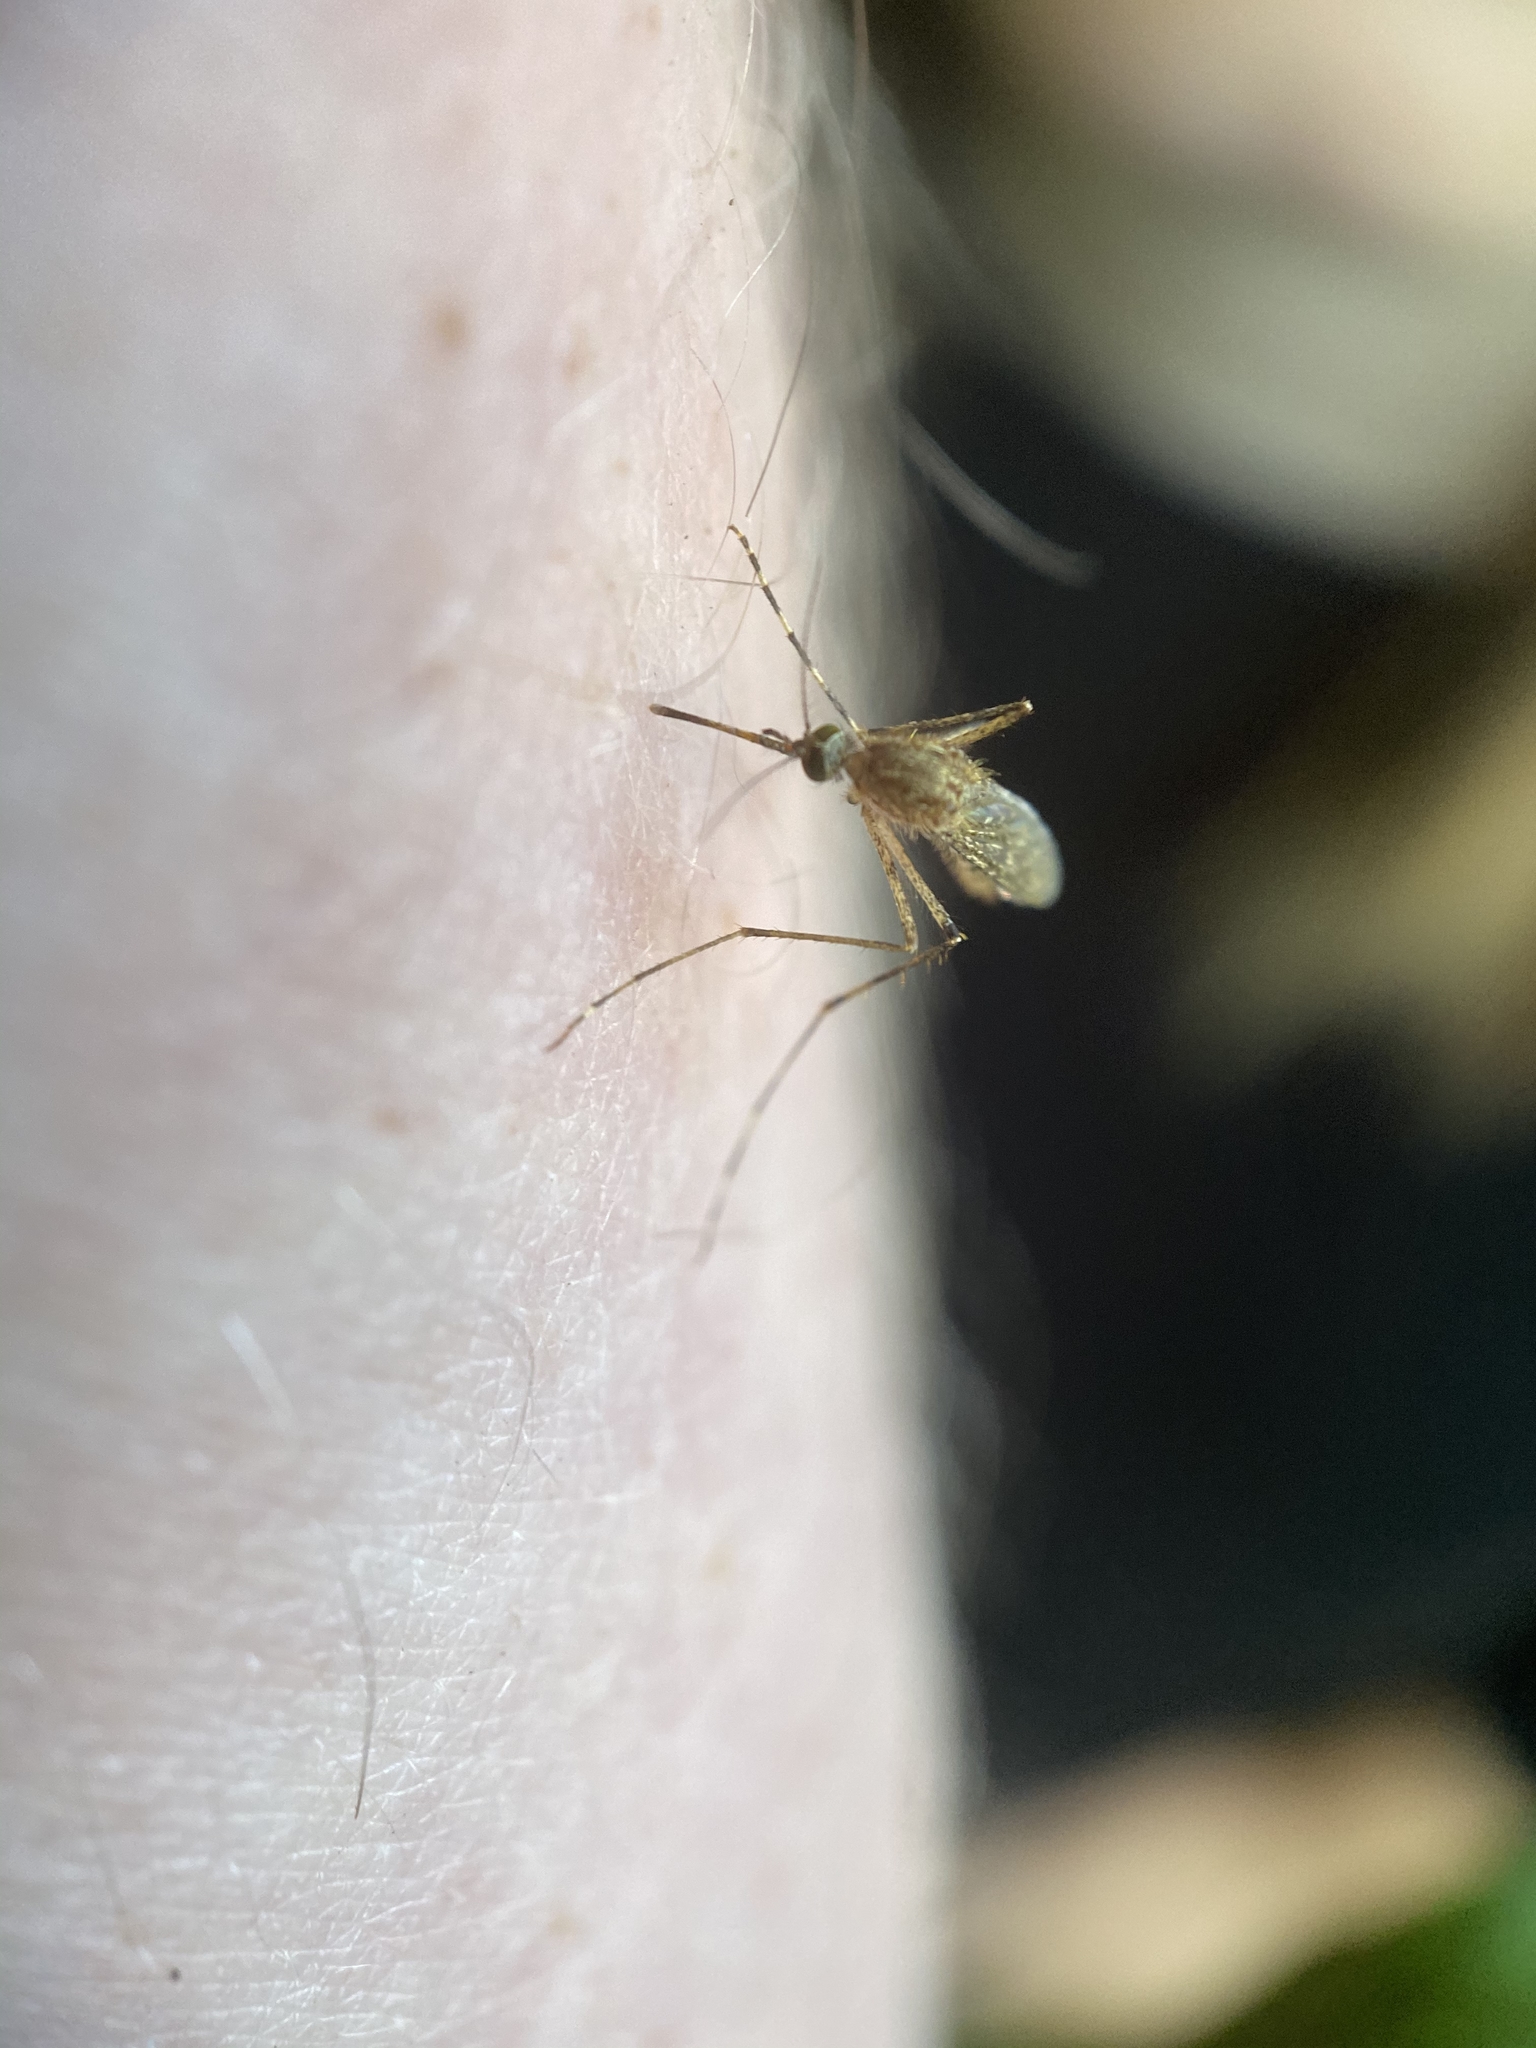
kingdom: Animalia
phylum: Arthropoda
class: Insecta
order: Diptera
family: Culicidae
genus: Coquillettidia
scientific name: Coquillettidia perturbans
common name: Cattail mosquito
